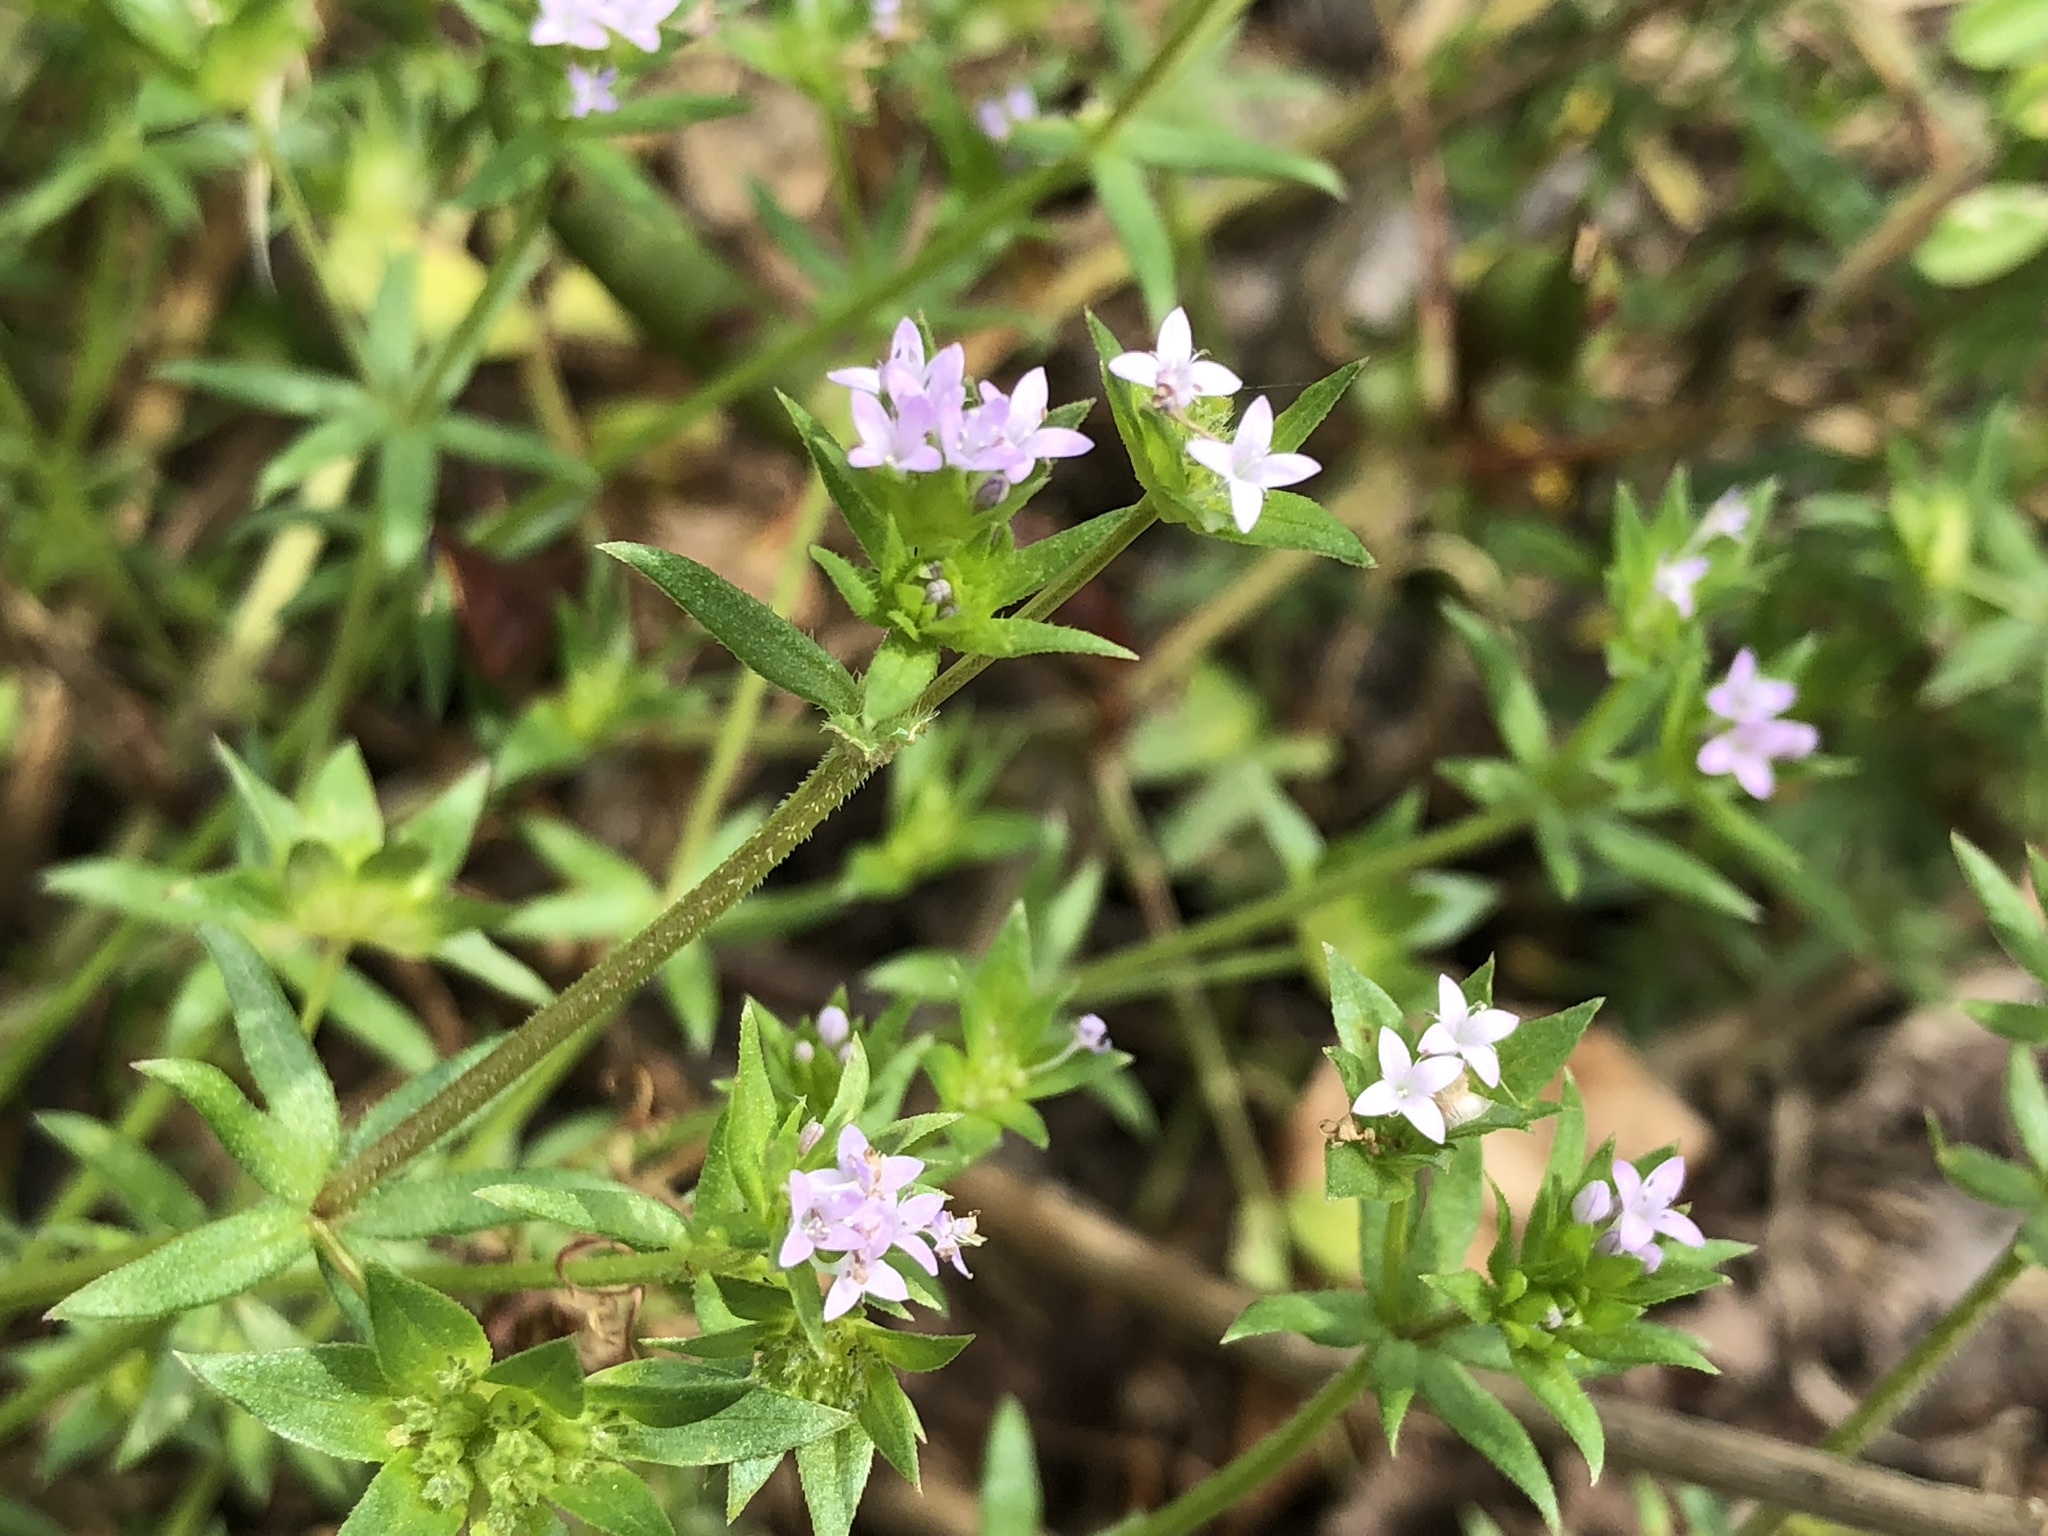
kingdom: Plantae
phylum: Tracheophyta
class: Magnoliopsida
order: Gentianales
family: Rubiaceae
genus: Sherardia
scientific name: Sherardia arvensis
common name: Field madder
